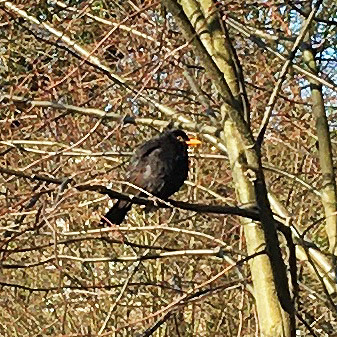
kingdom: Animalia
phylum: Chordata
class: Aves
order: Passeriformes
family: Turdidae
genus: Turdus
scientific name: Turdus merula
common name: Common blackbird
